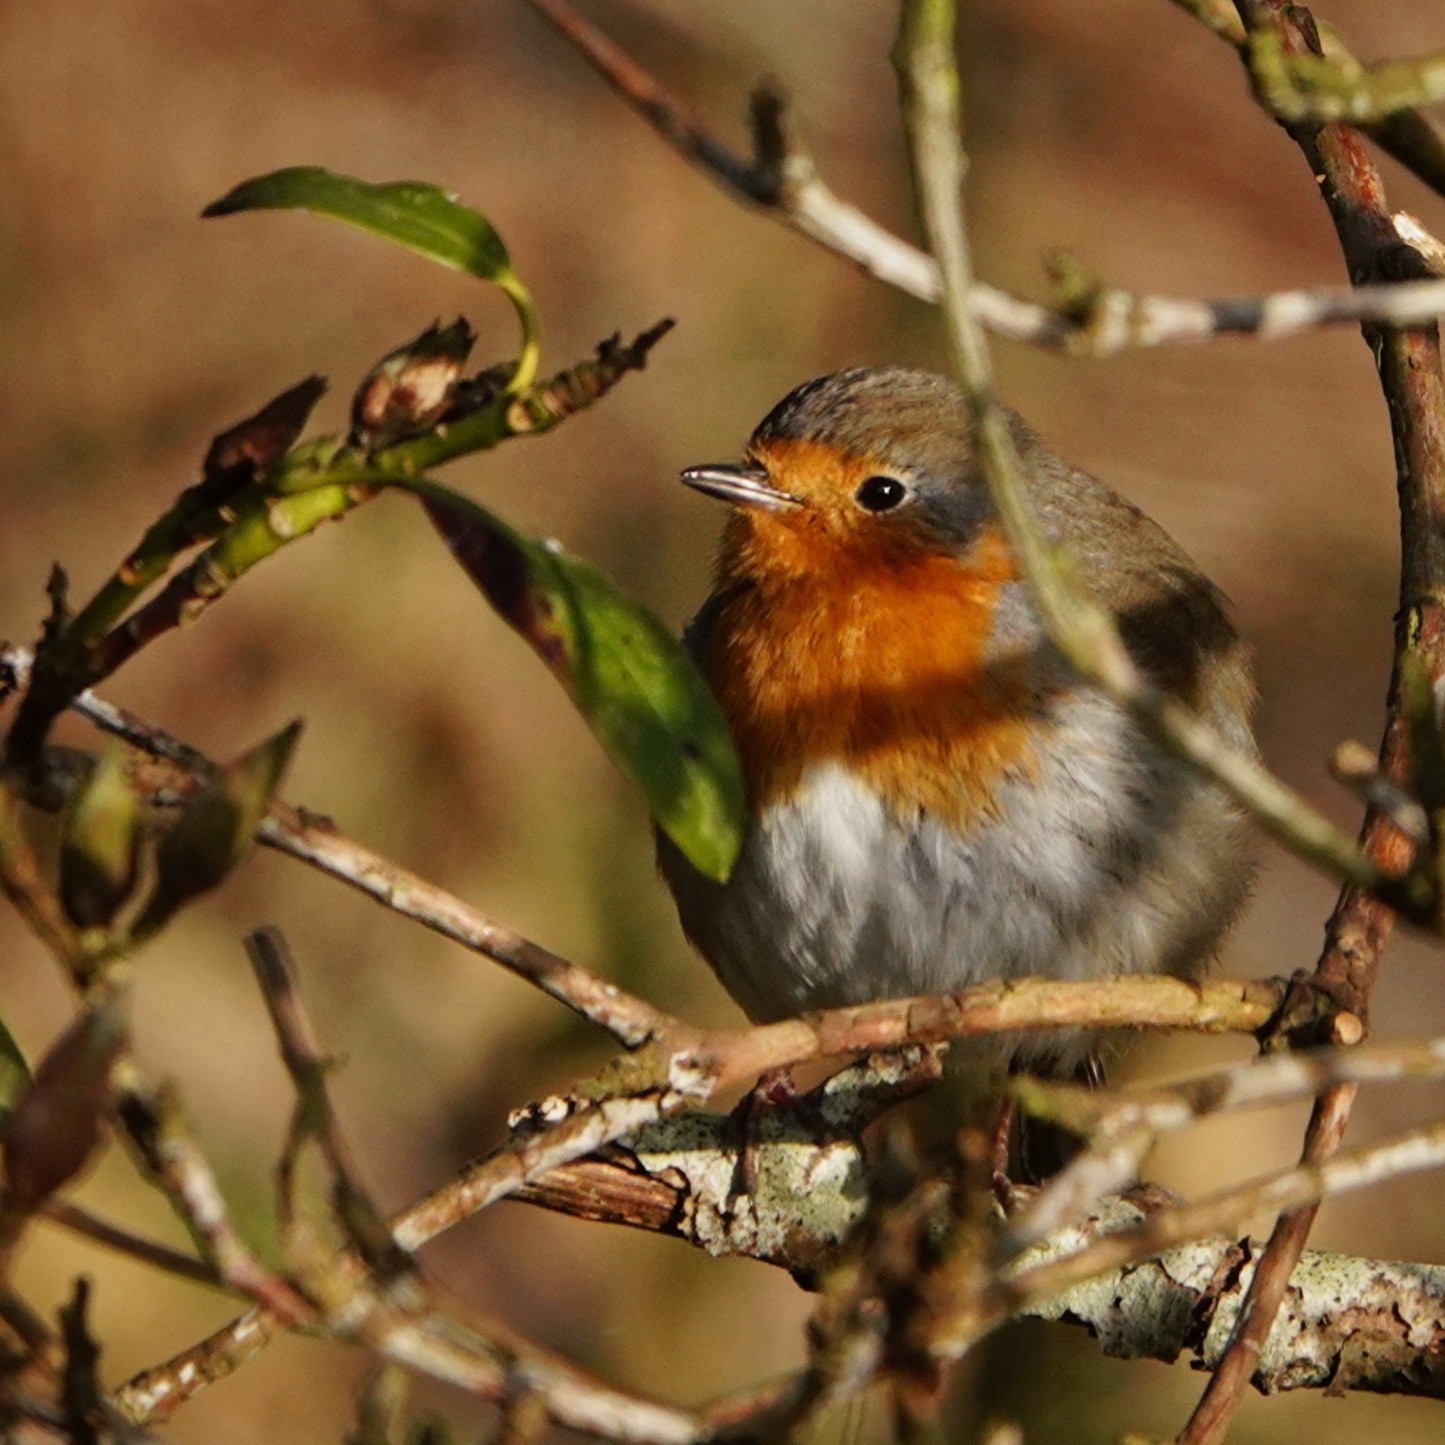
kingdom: Animalia
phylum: Chordata
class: Aves
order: Passeriformes
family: Muscicapidae
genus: Erithacus
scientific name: Erithacus rubecula
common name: European robin
